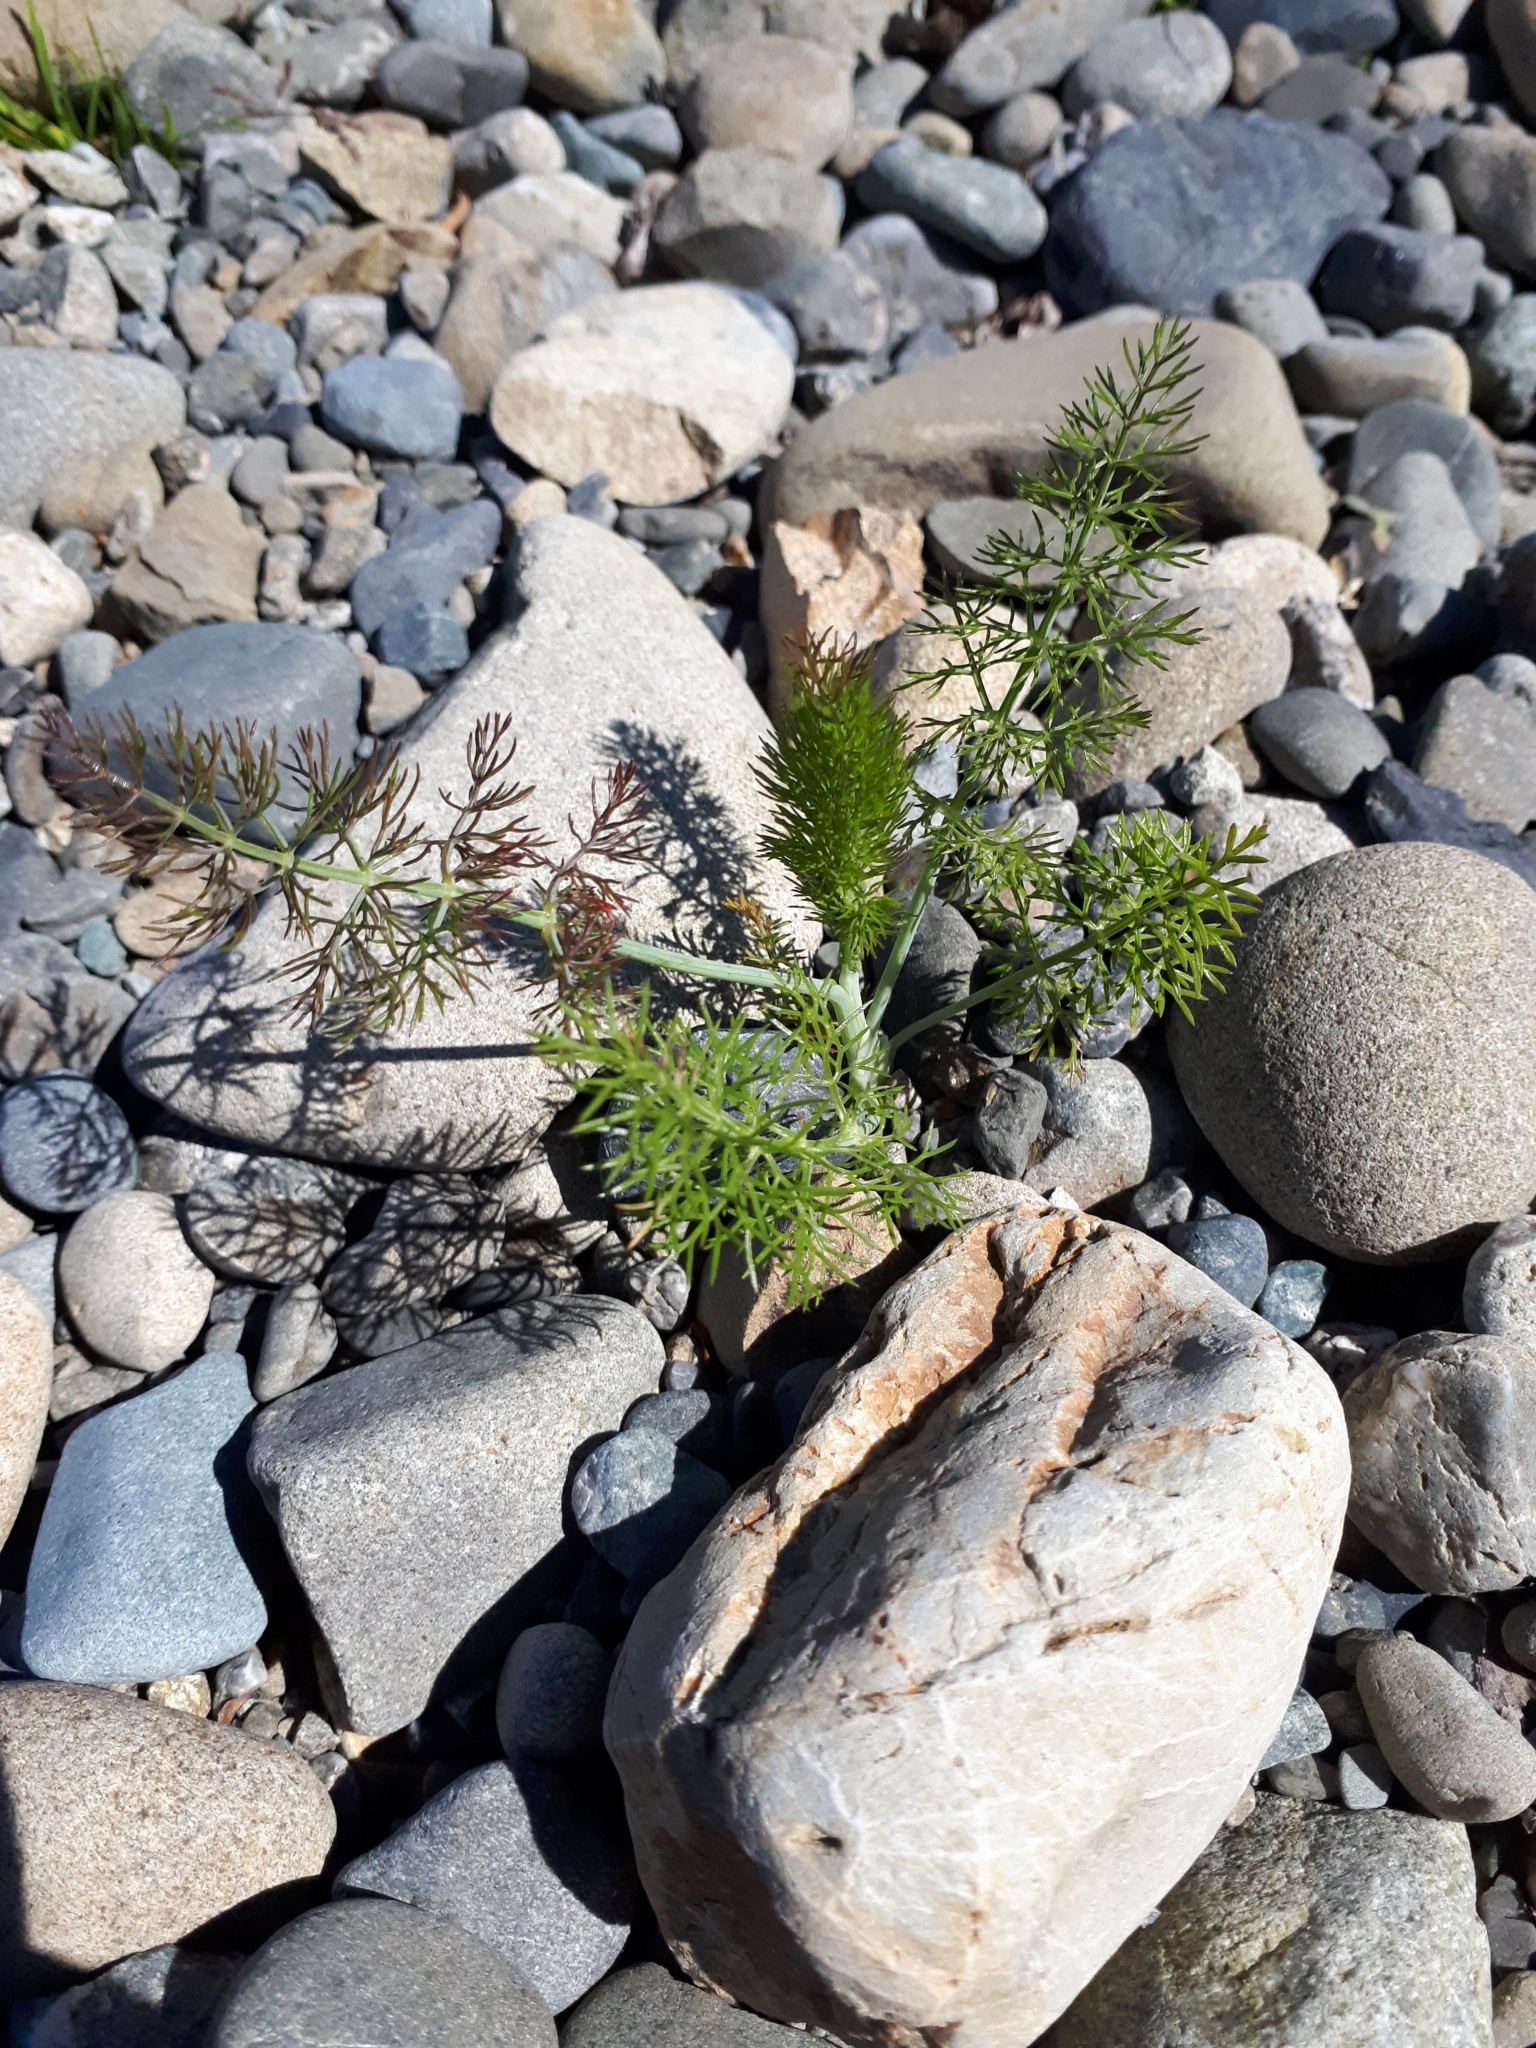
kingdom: Plantae
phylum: Tracheophyta
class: Magnoliopsida
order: Apiales
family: Apiaceae
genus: Foeniculum
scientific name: Foeniculum vulgare
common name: Fennel
